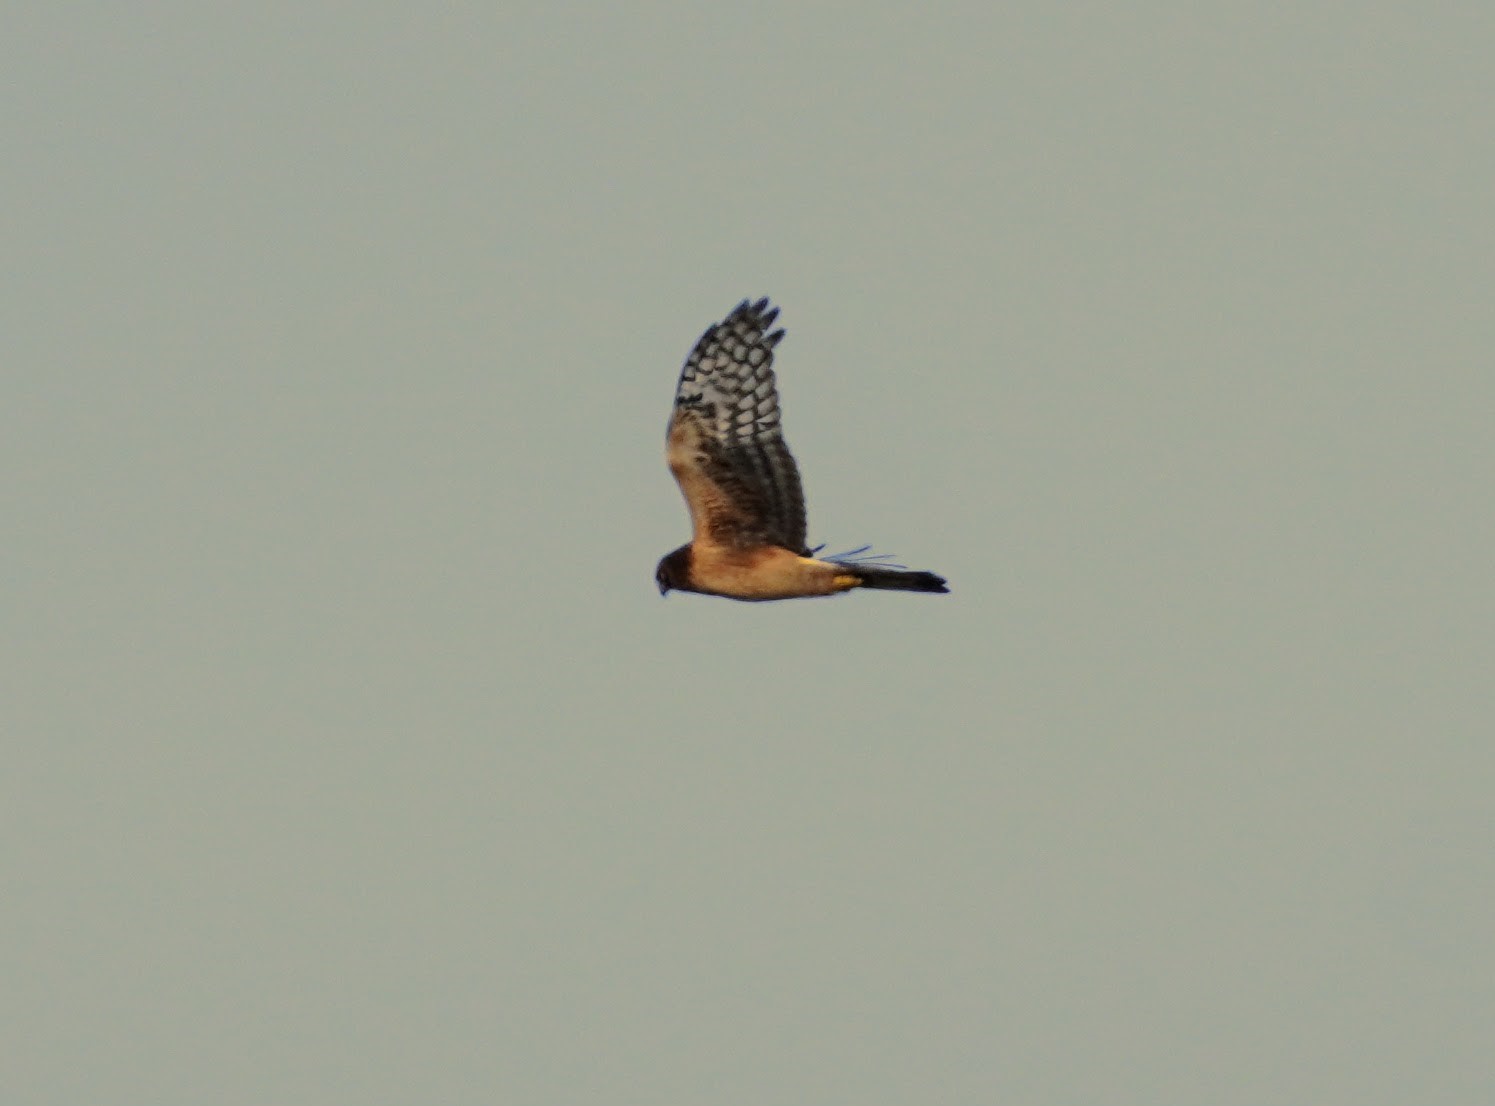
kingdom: Animalia
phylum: Chordata
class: Aves
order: Accipitriformes
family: Accipitridae
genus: Circus
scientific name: Circus cyaneus
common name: Hen harrier
